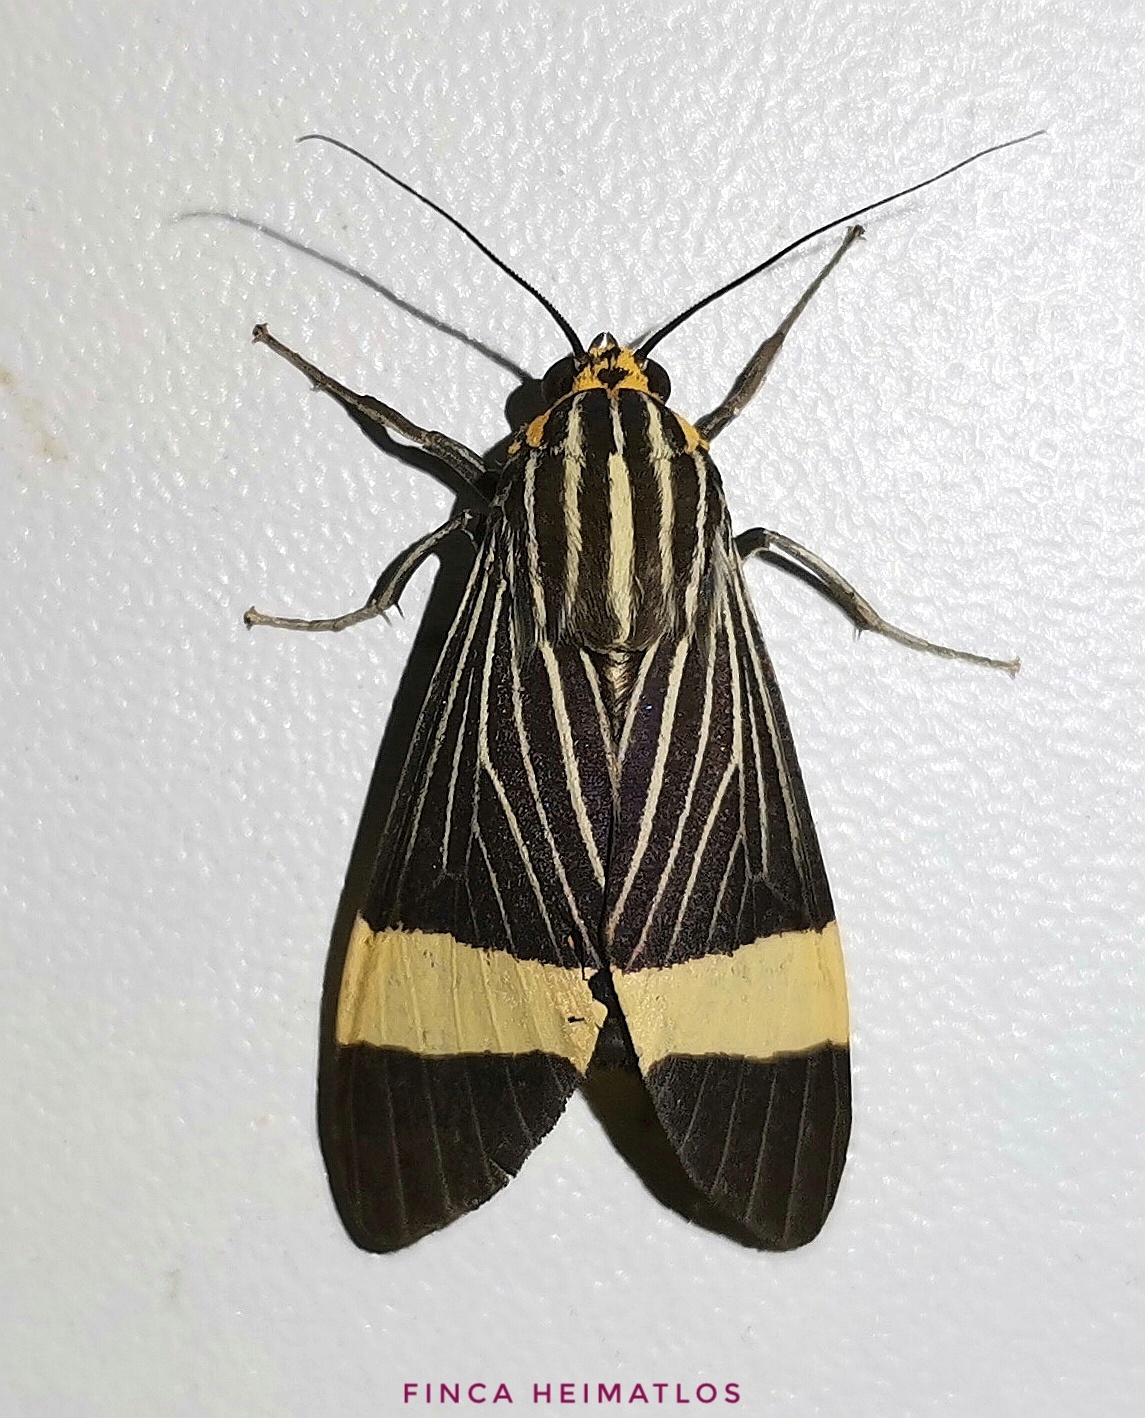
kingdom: Animalia
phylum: Arthropoda
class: Insecta
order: Lepidoptera
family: Erebidae
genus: Ordishia
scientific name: Ordishia rutilus
